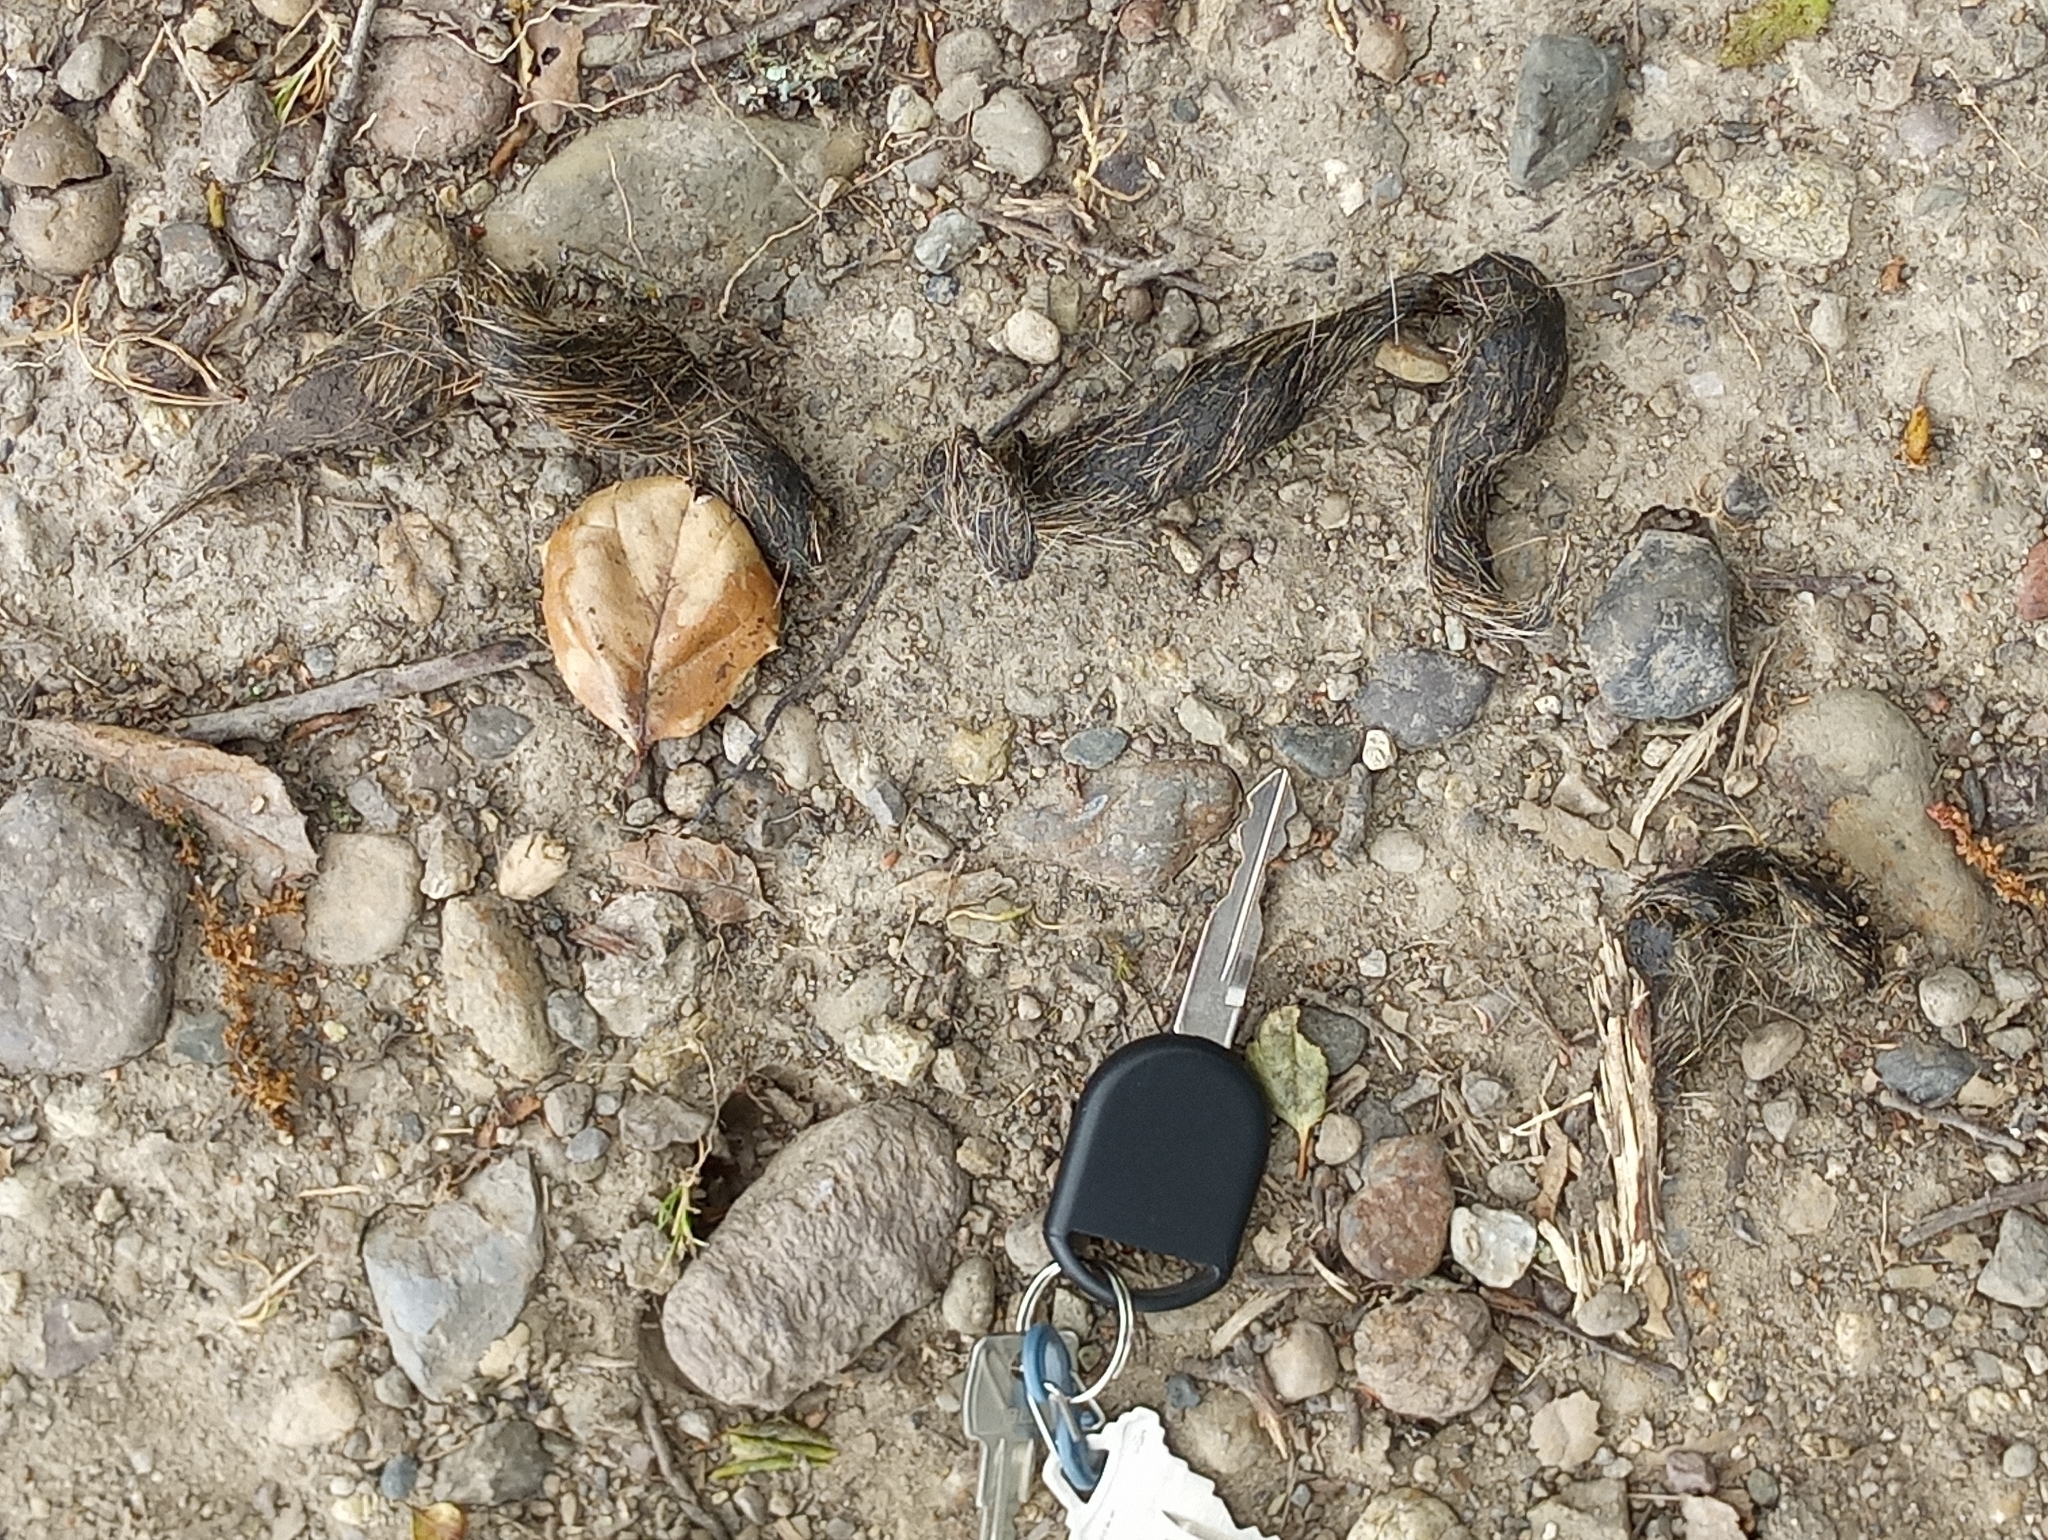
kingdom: Animalia
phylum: Chordata
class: Mammalia
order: Carnivora
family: Canidae
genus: Canis
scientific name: Canis latrans
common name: Coyote
